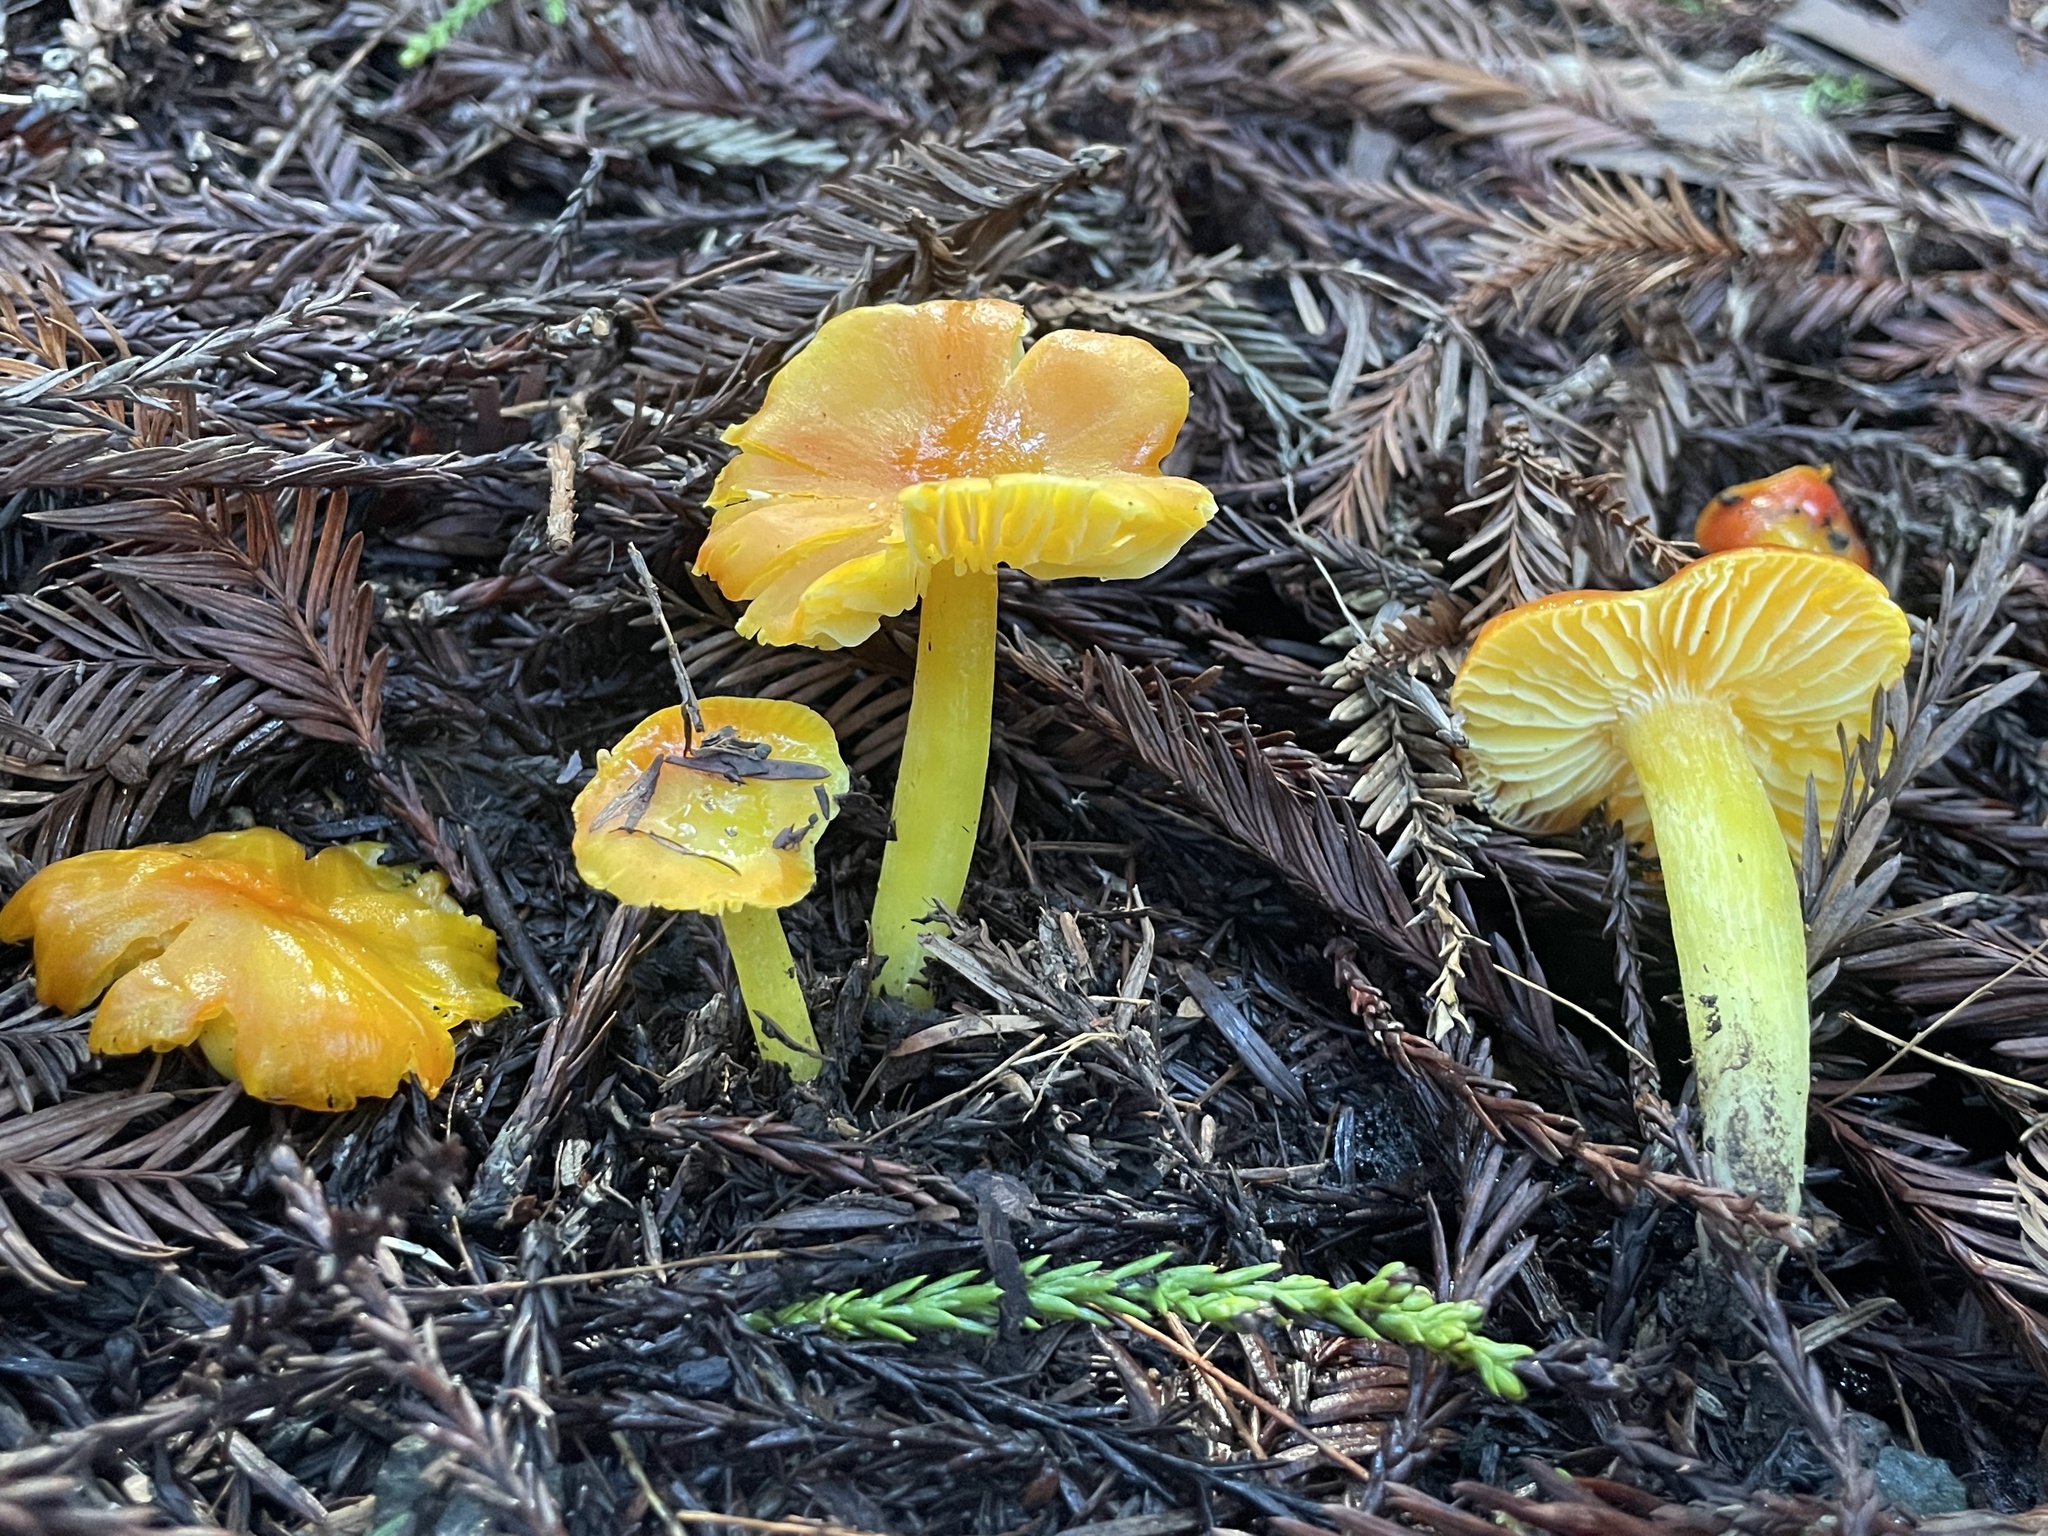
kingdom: Fungi
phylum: Basidiomycota
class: Agaricomycetes
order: Agaricales
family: Hygrophoraceae
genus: Hygrocybe
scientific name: Hygrocybe flavescens
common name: Golden waxy cap
